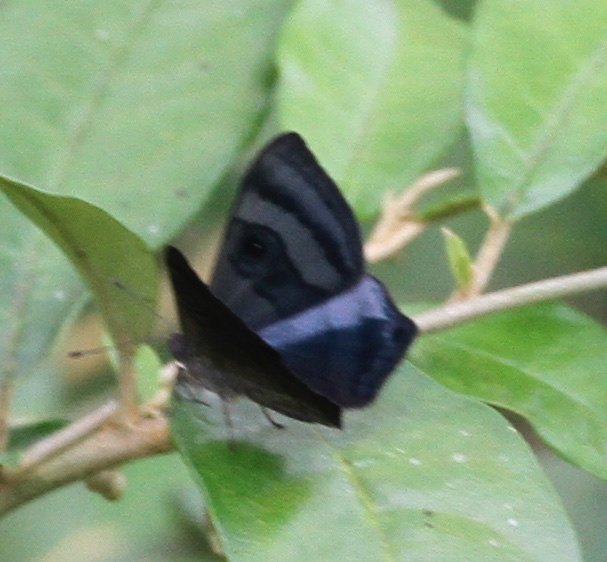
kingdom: Animalia
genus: Mesosemia
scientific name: Mesosemia rhodia
